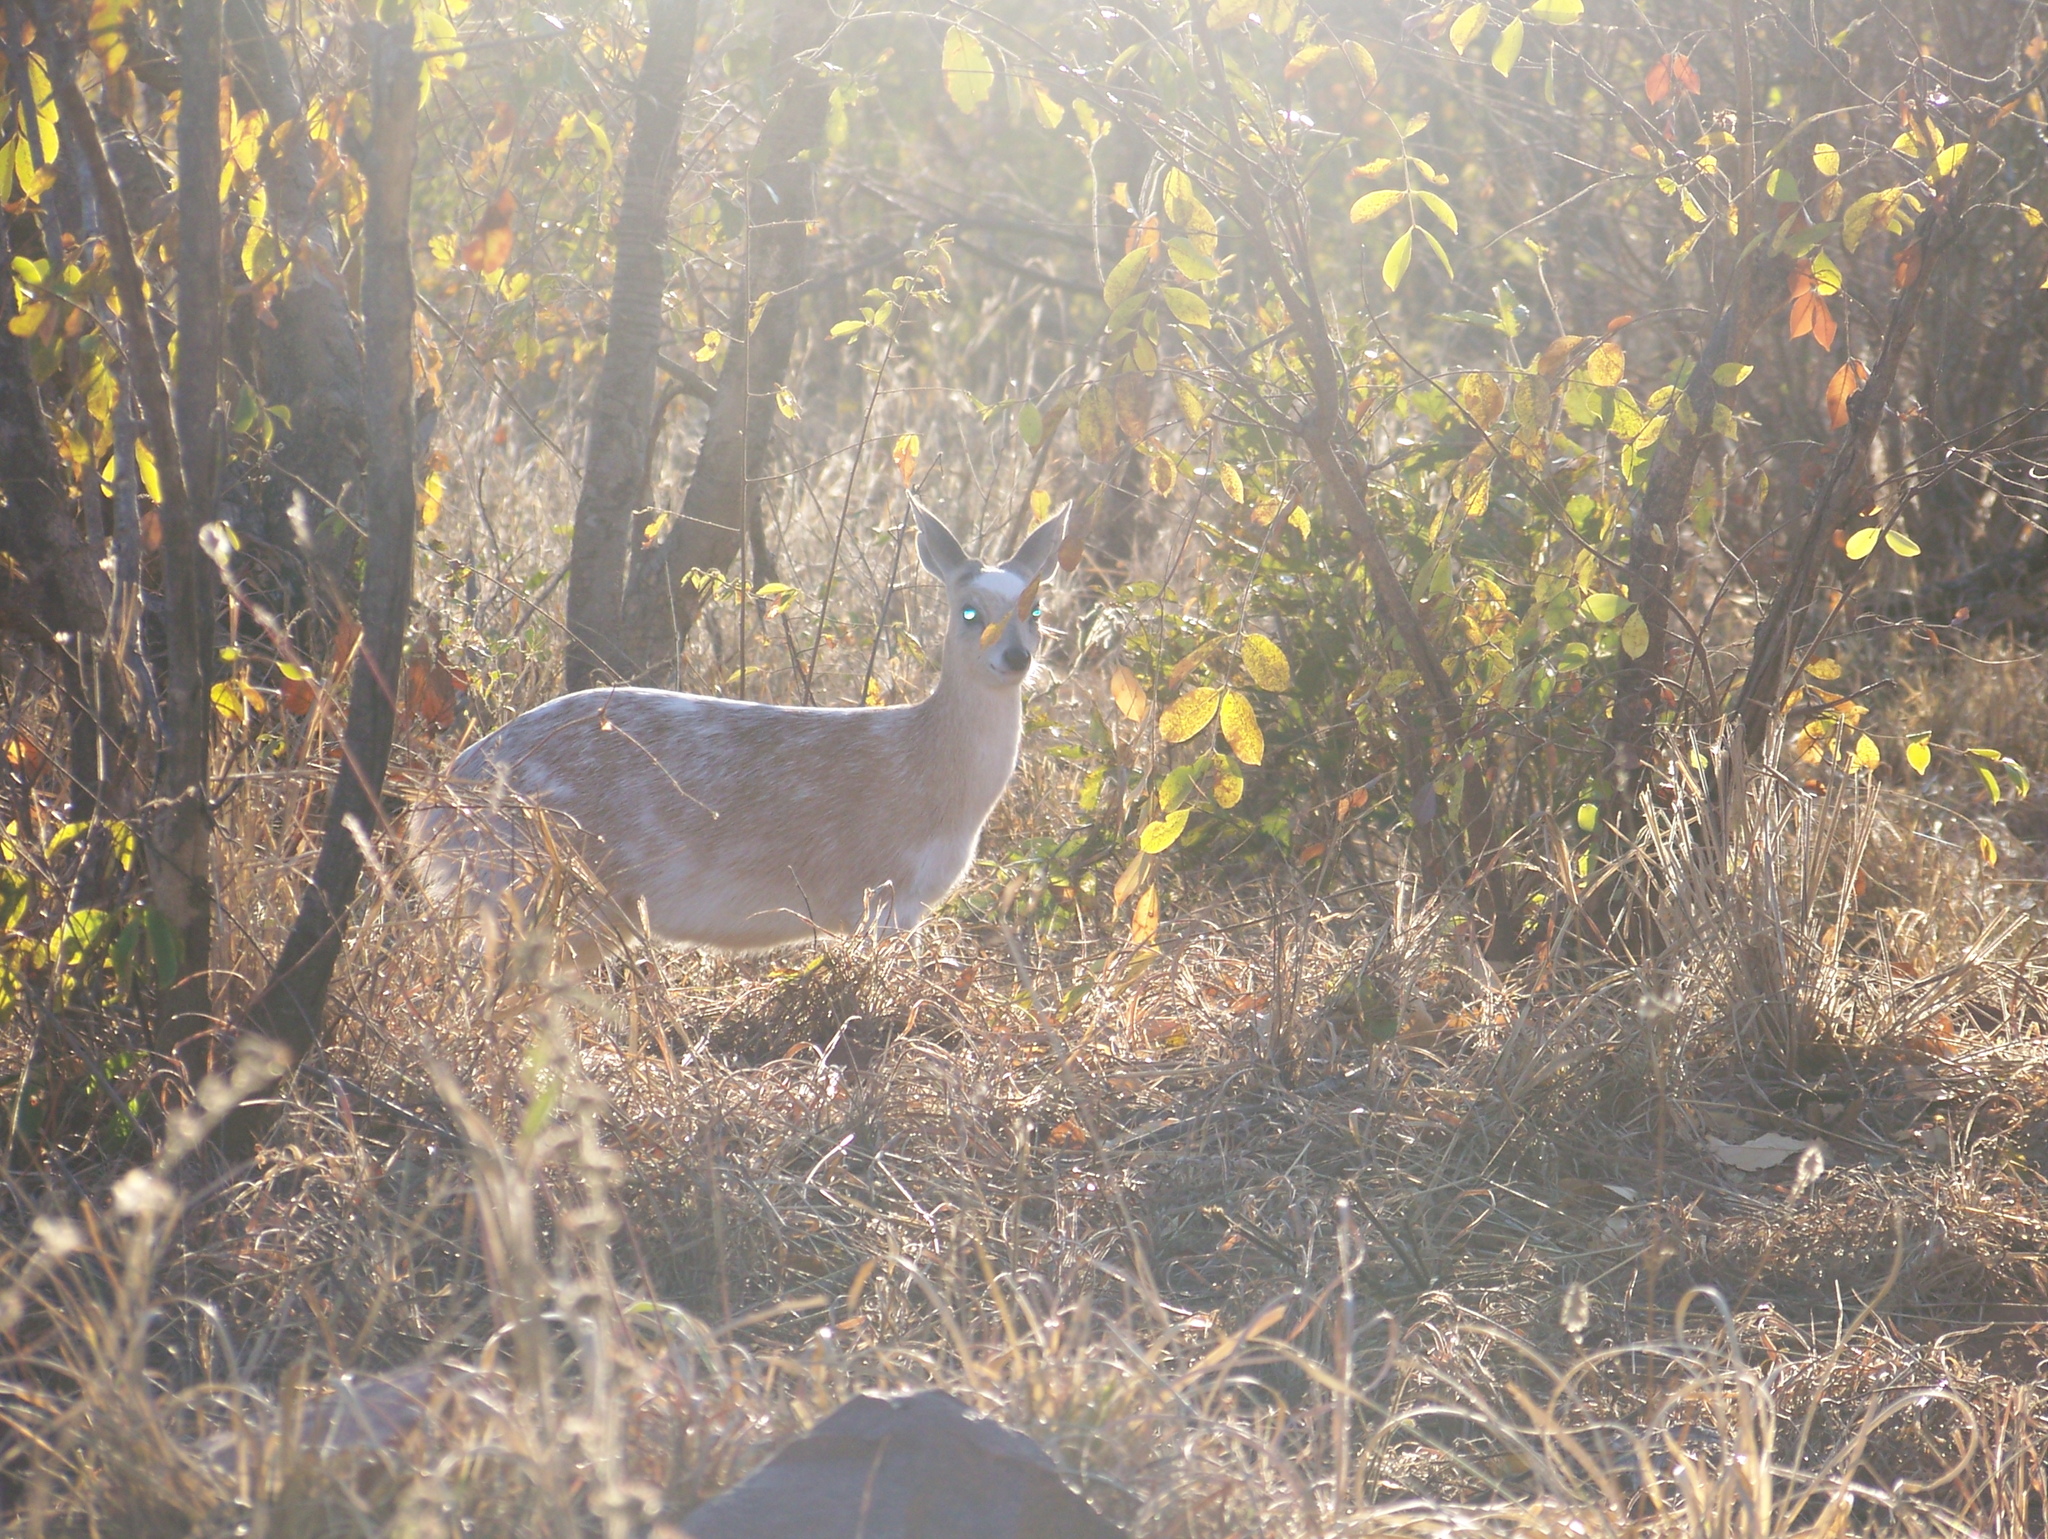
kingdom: Animalia
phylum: Chordata
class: Mammalia
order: Artiodactyla
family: Bovidae
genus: Raphicerus
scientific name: Raphicerus sharpei
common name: Sharpe's grysbok
